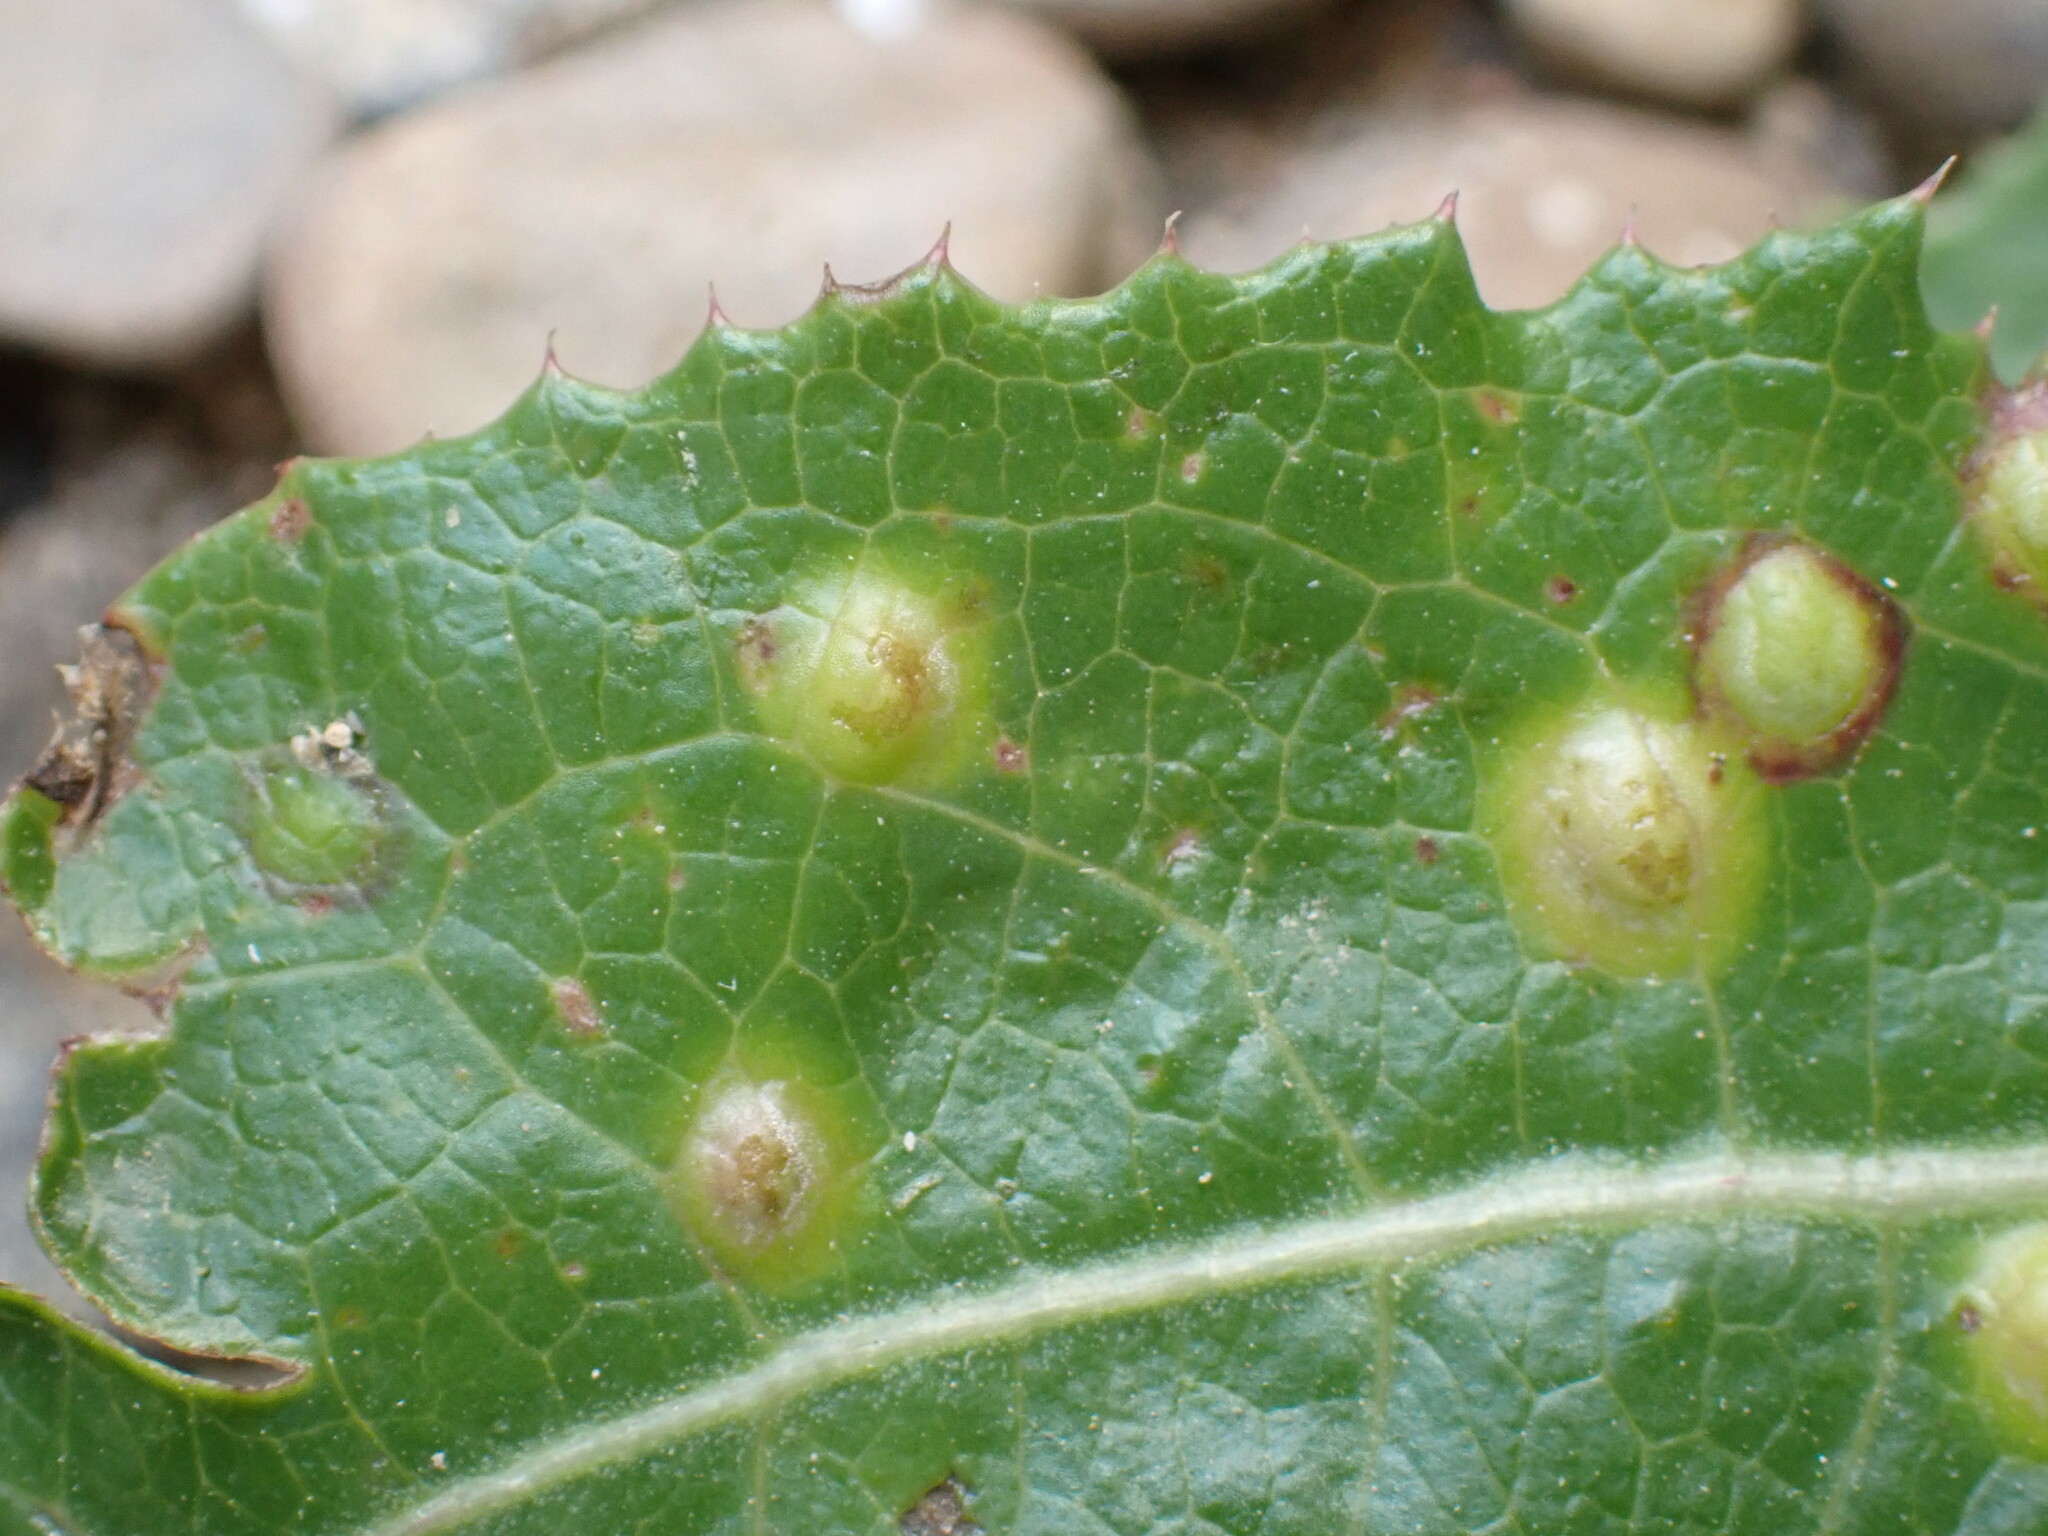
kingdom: Animalia
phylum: Arthropoda
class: Insecta
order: Diptera
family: Cecidomyiidae
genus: Cystiphora
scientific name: Cystiphora sonchi
